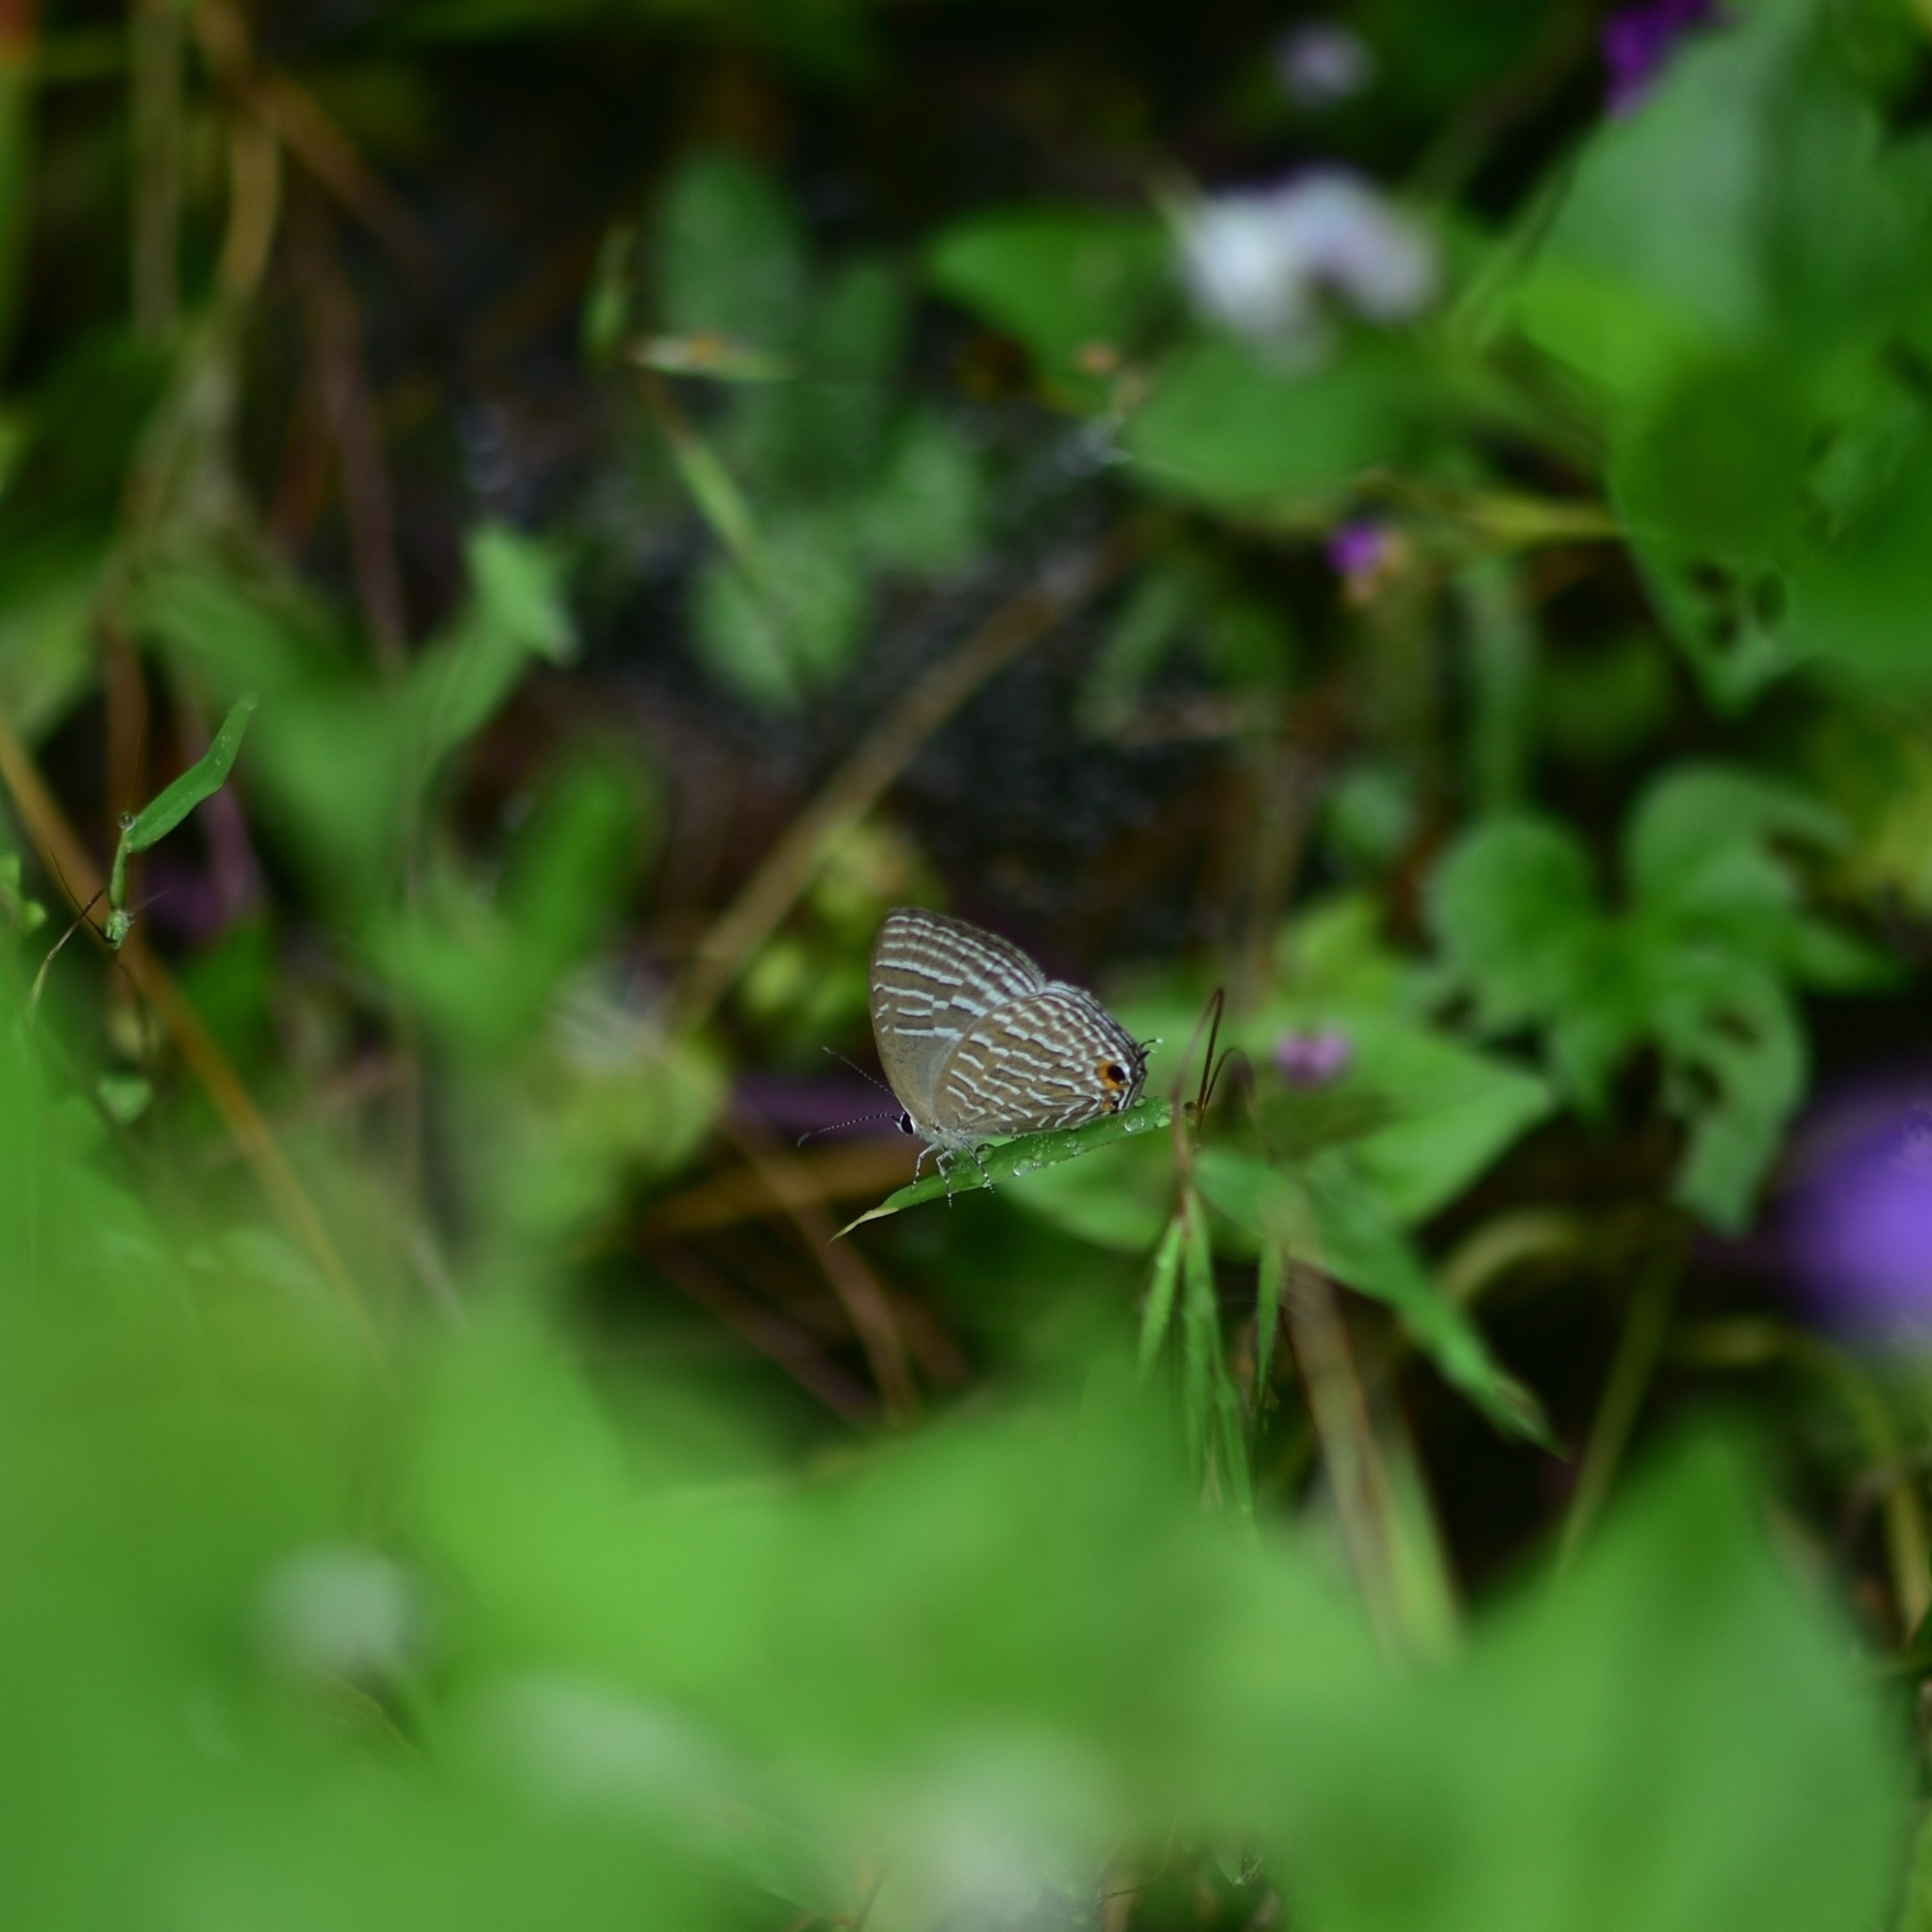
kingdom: Animalia
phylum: Arthropoda
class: Insecta
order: Lepidoptera
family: Lycaenidae
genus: Jamides
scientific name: Jamides celeno
